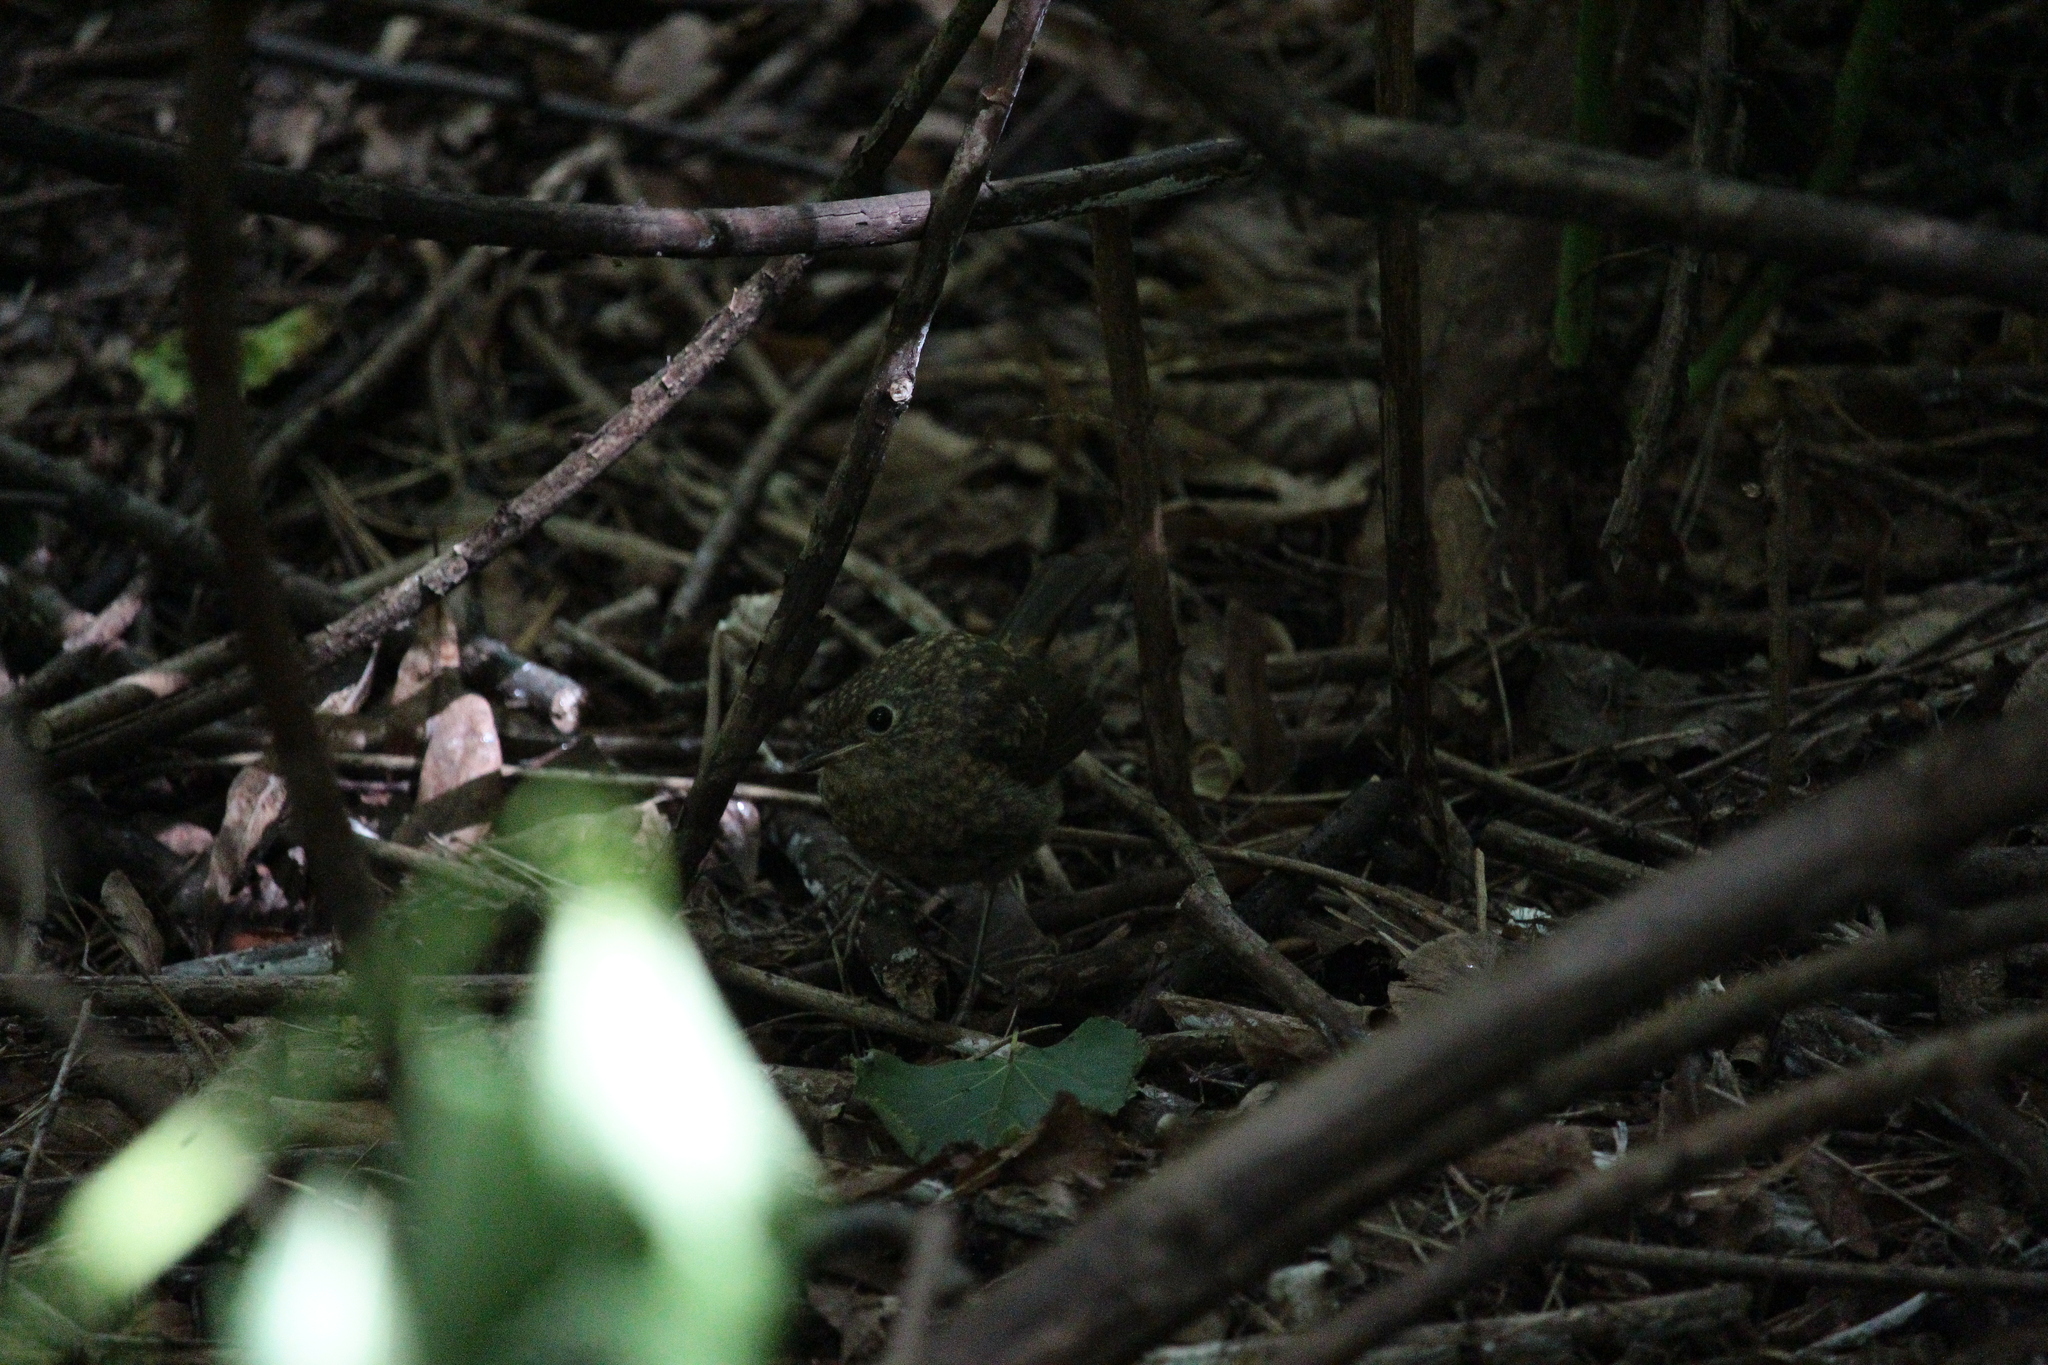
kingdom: Animalia
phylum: Chordata
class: Aves
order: Passeriformes
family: Muscicapidae
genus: Erithacus
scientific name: Erithacus rubecula
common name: European robin
